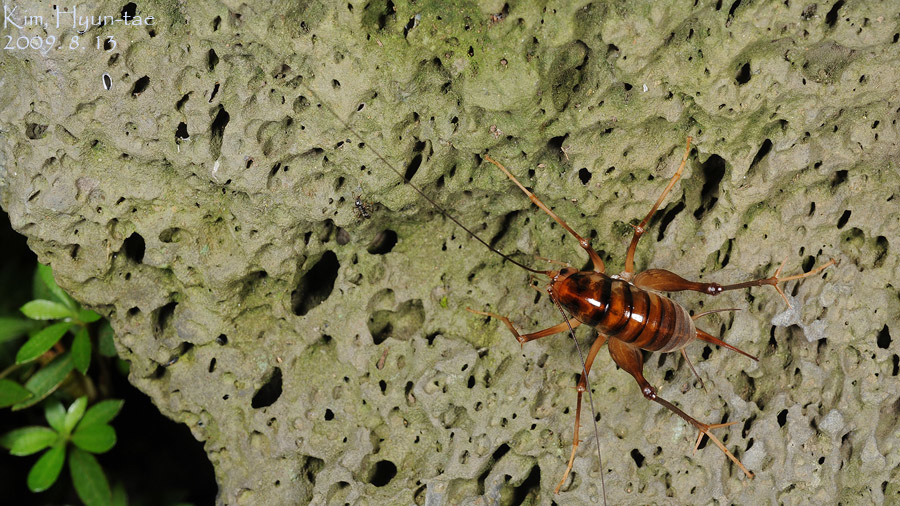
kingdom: Animalia
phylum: Arthropoda
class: Insecta
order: Orthoptera
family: Rhaphidophoridae
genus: Tachycines
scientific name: Tachycines asynamorus
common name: Greenhouse camel cricket
